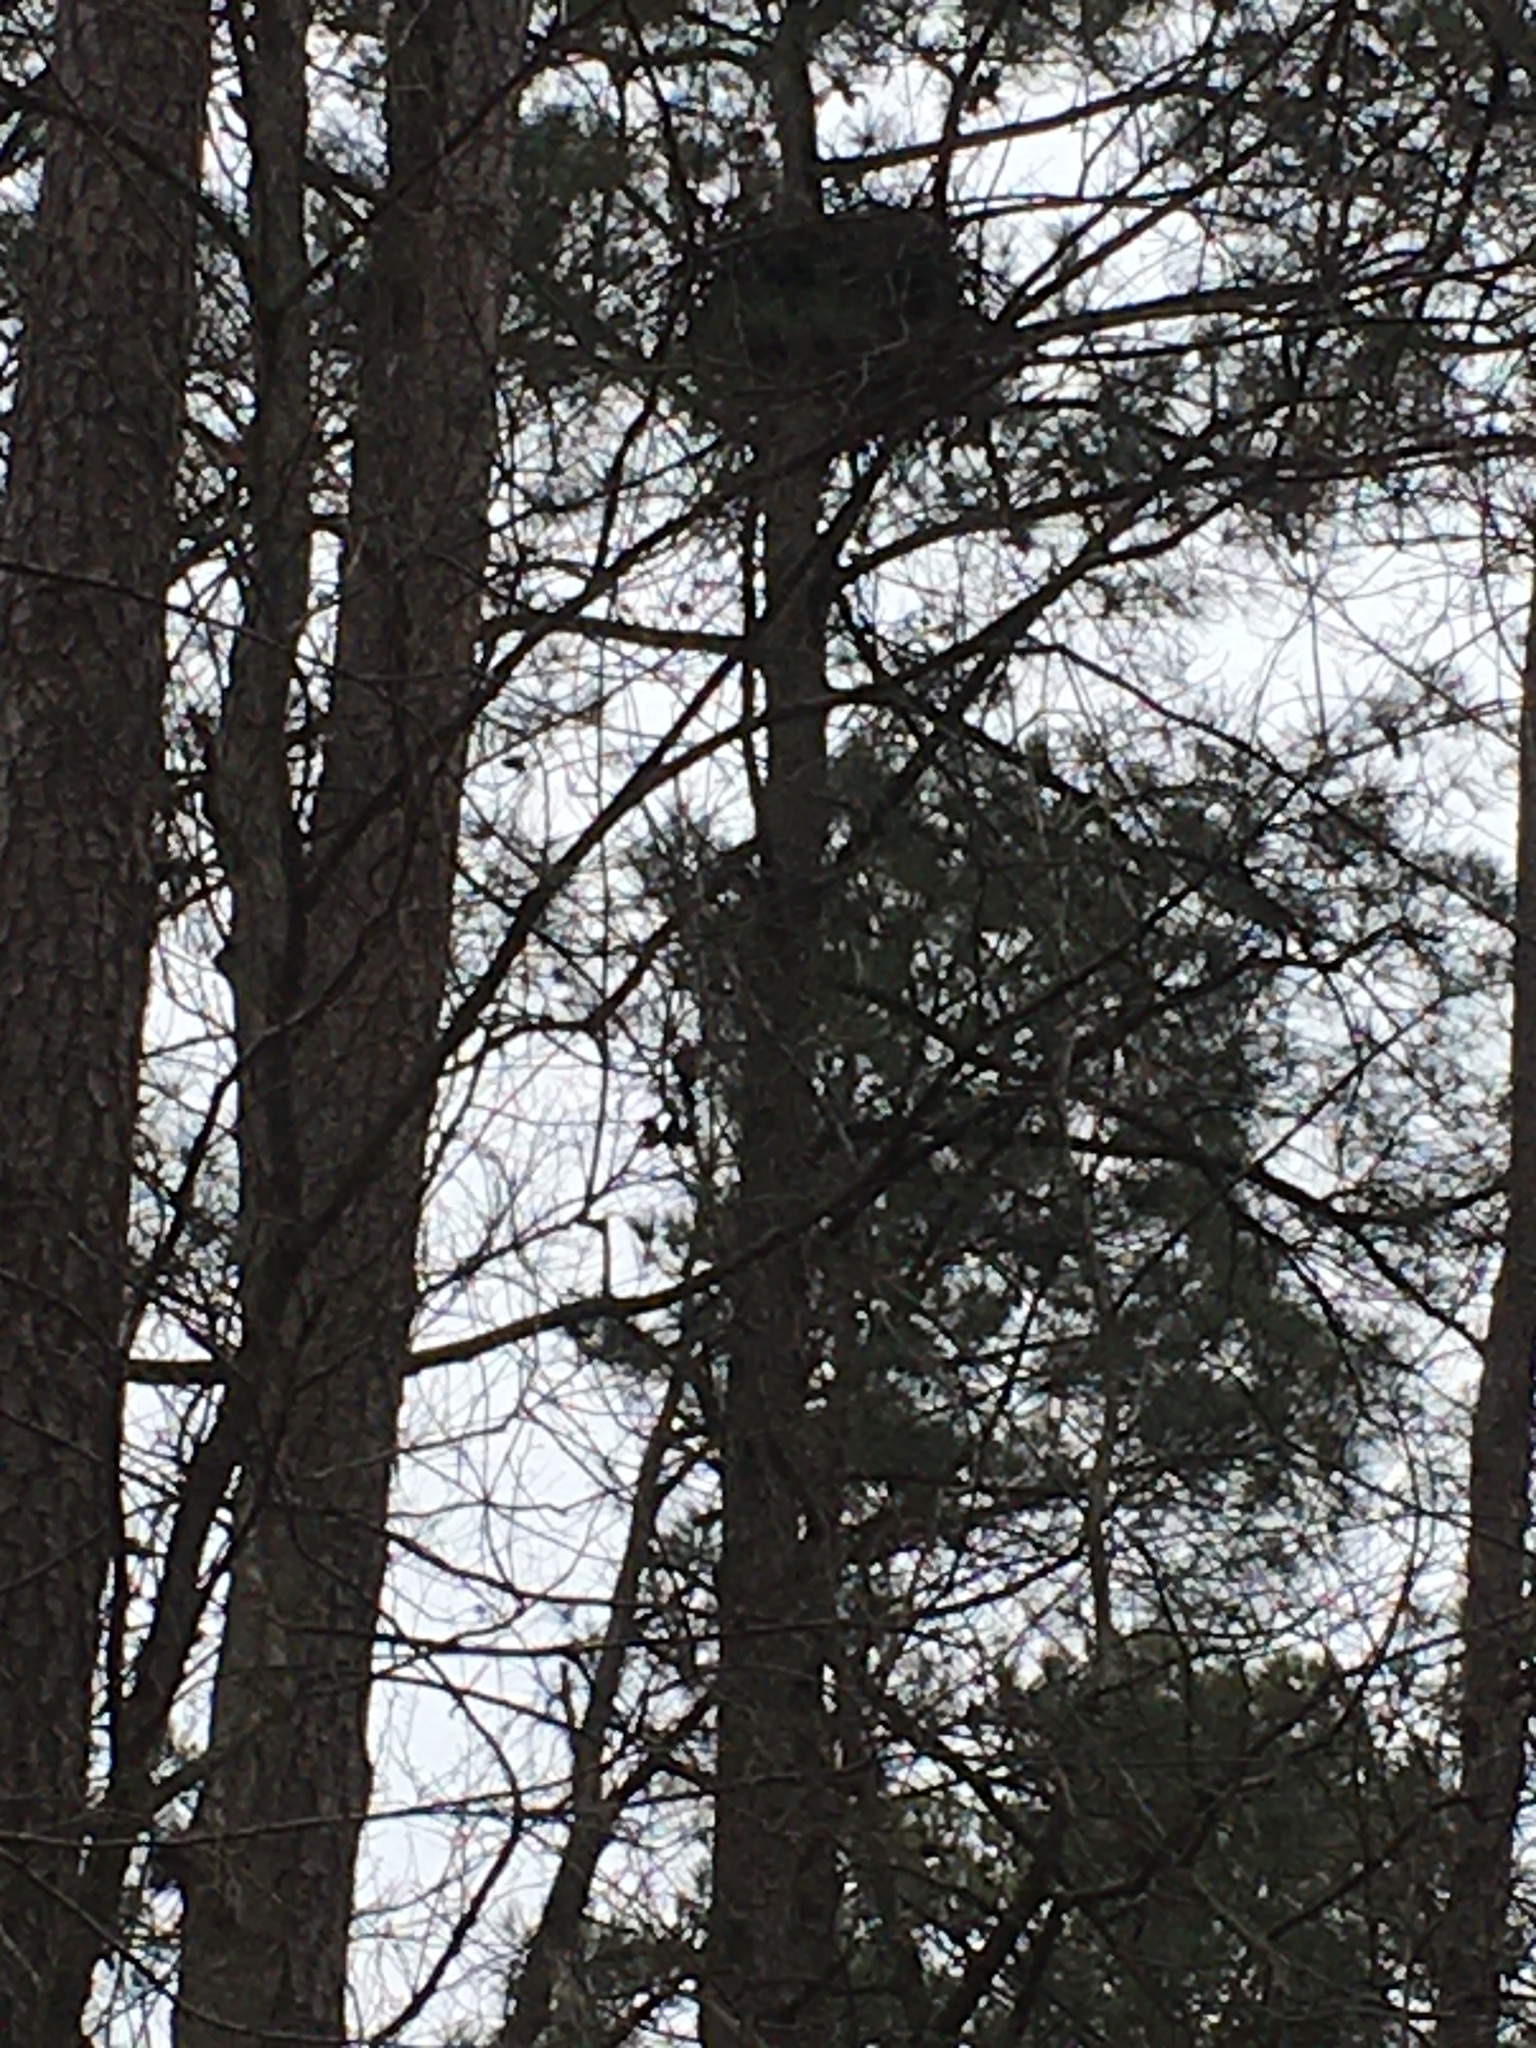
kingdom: Animalia
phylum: Chordata
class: Aves
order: Accipitriformes
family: Accipitridae
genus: Haliaeetus
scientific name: Haliaeetus leucocephalus
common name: Bald eagle
